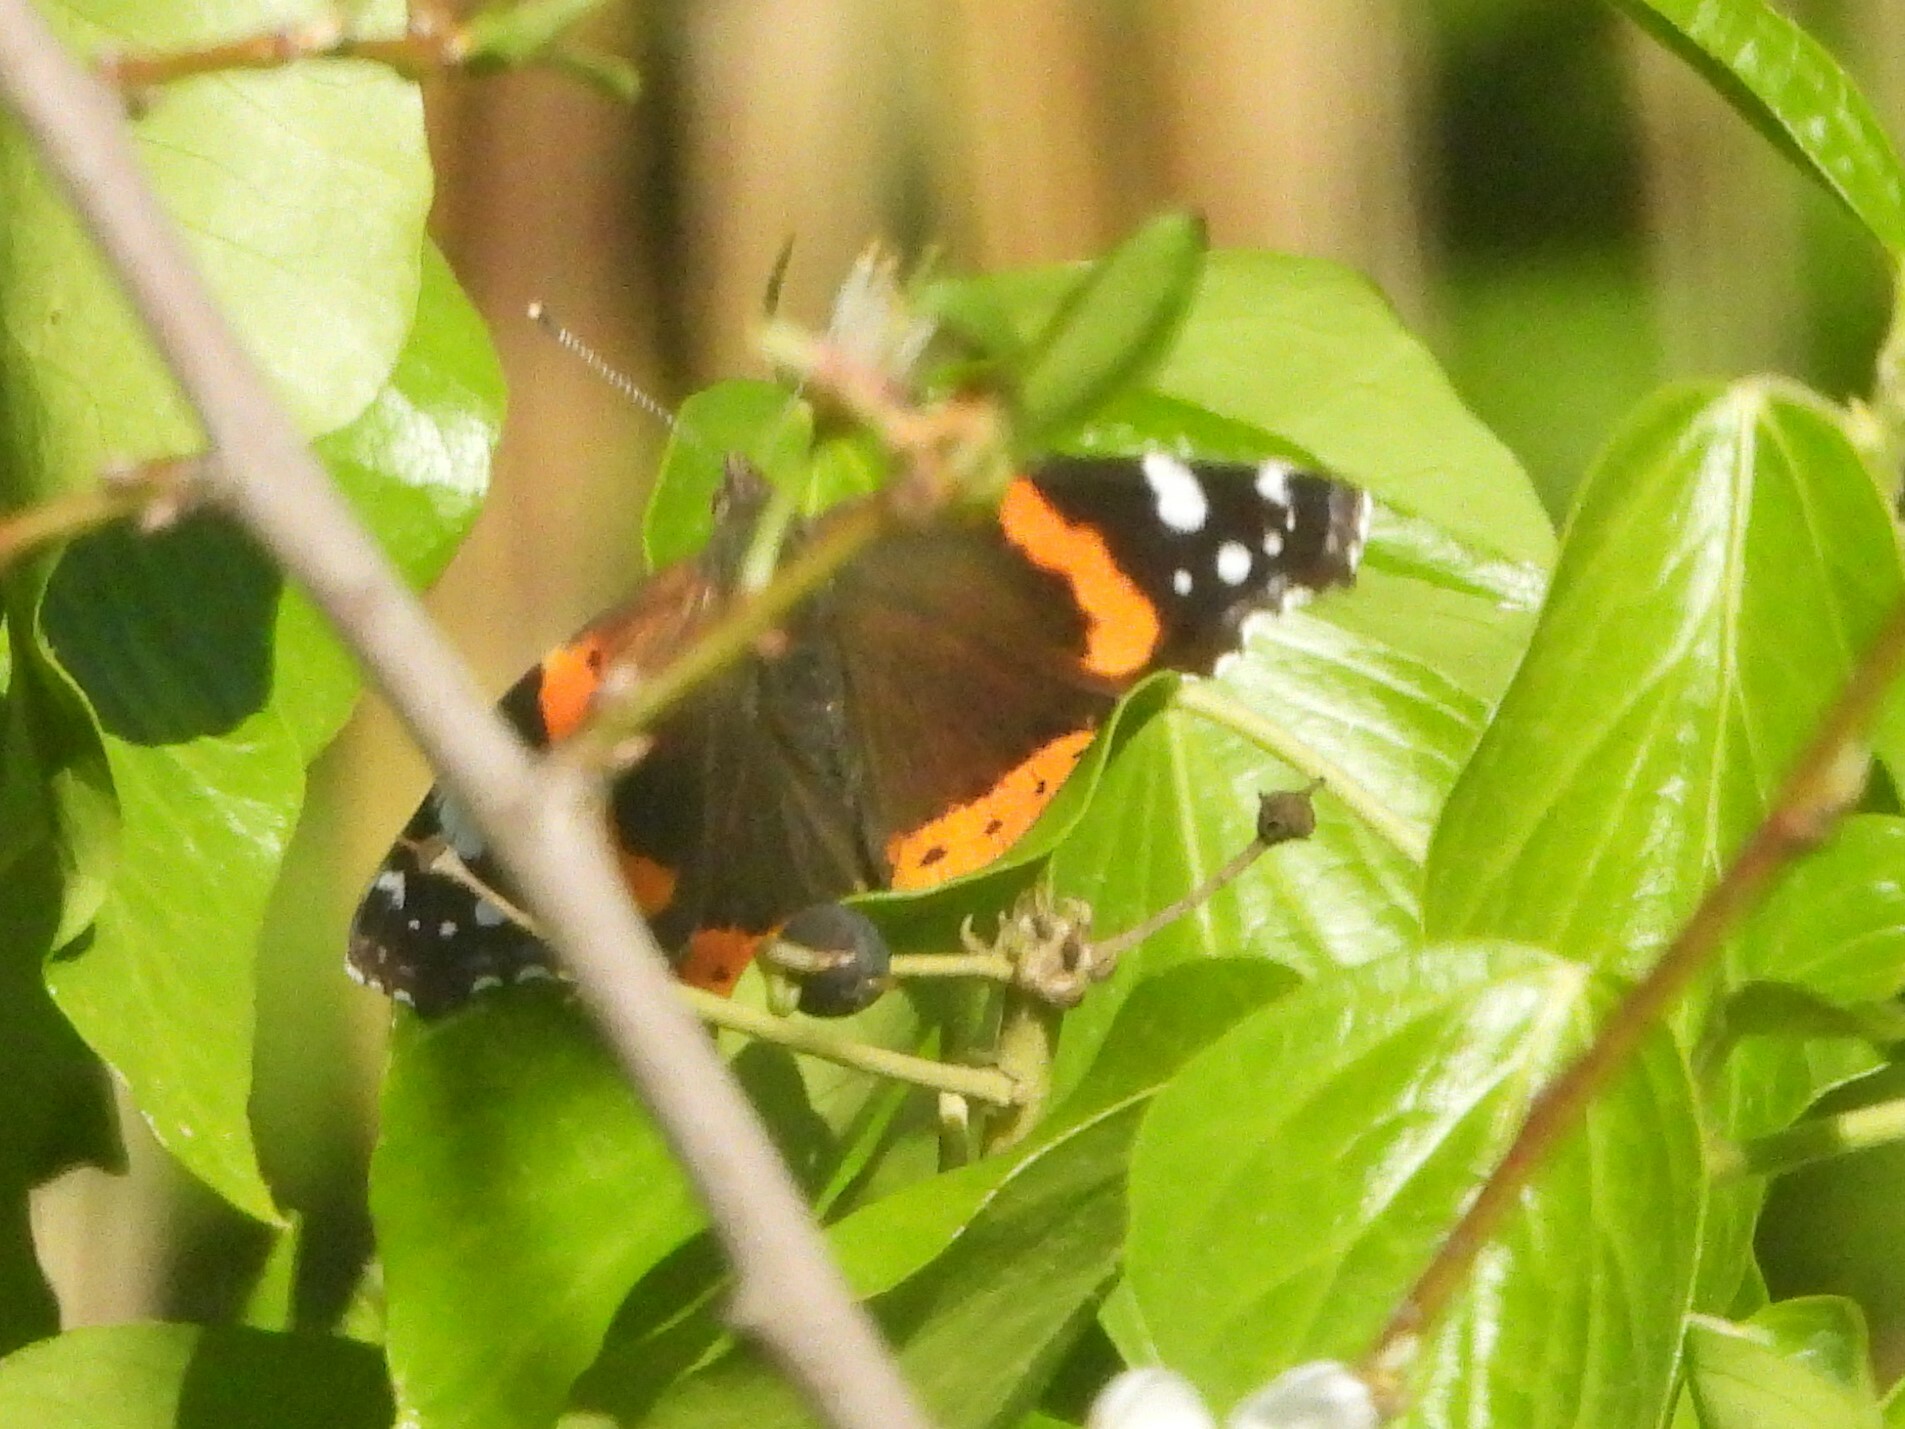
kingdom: Animalia
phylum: Arthropoda
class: Insecta
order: Lepidoptera
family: Nymphalidae
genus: Vanessa
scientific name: Vanessa atalanta
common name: Red admiral
